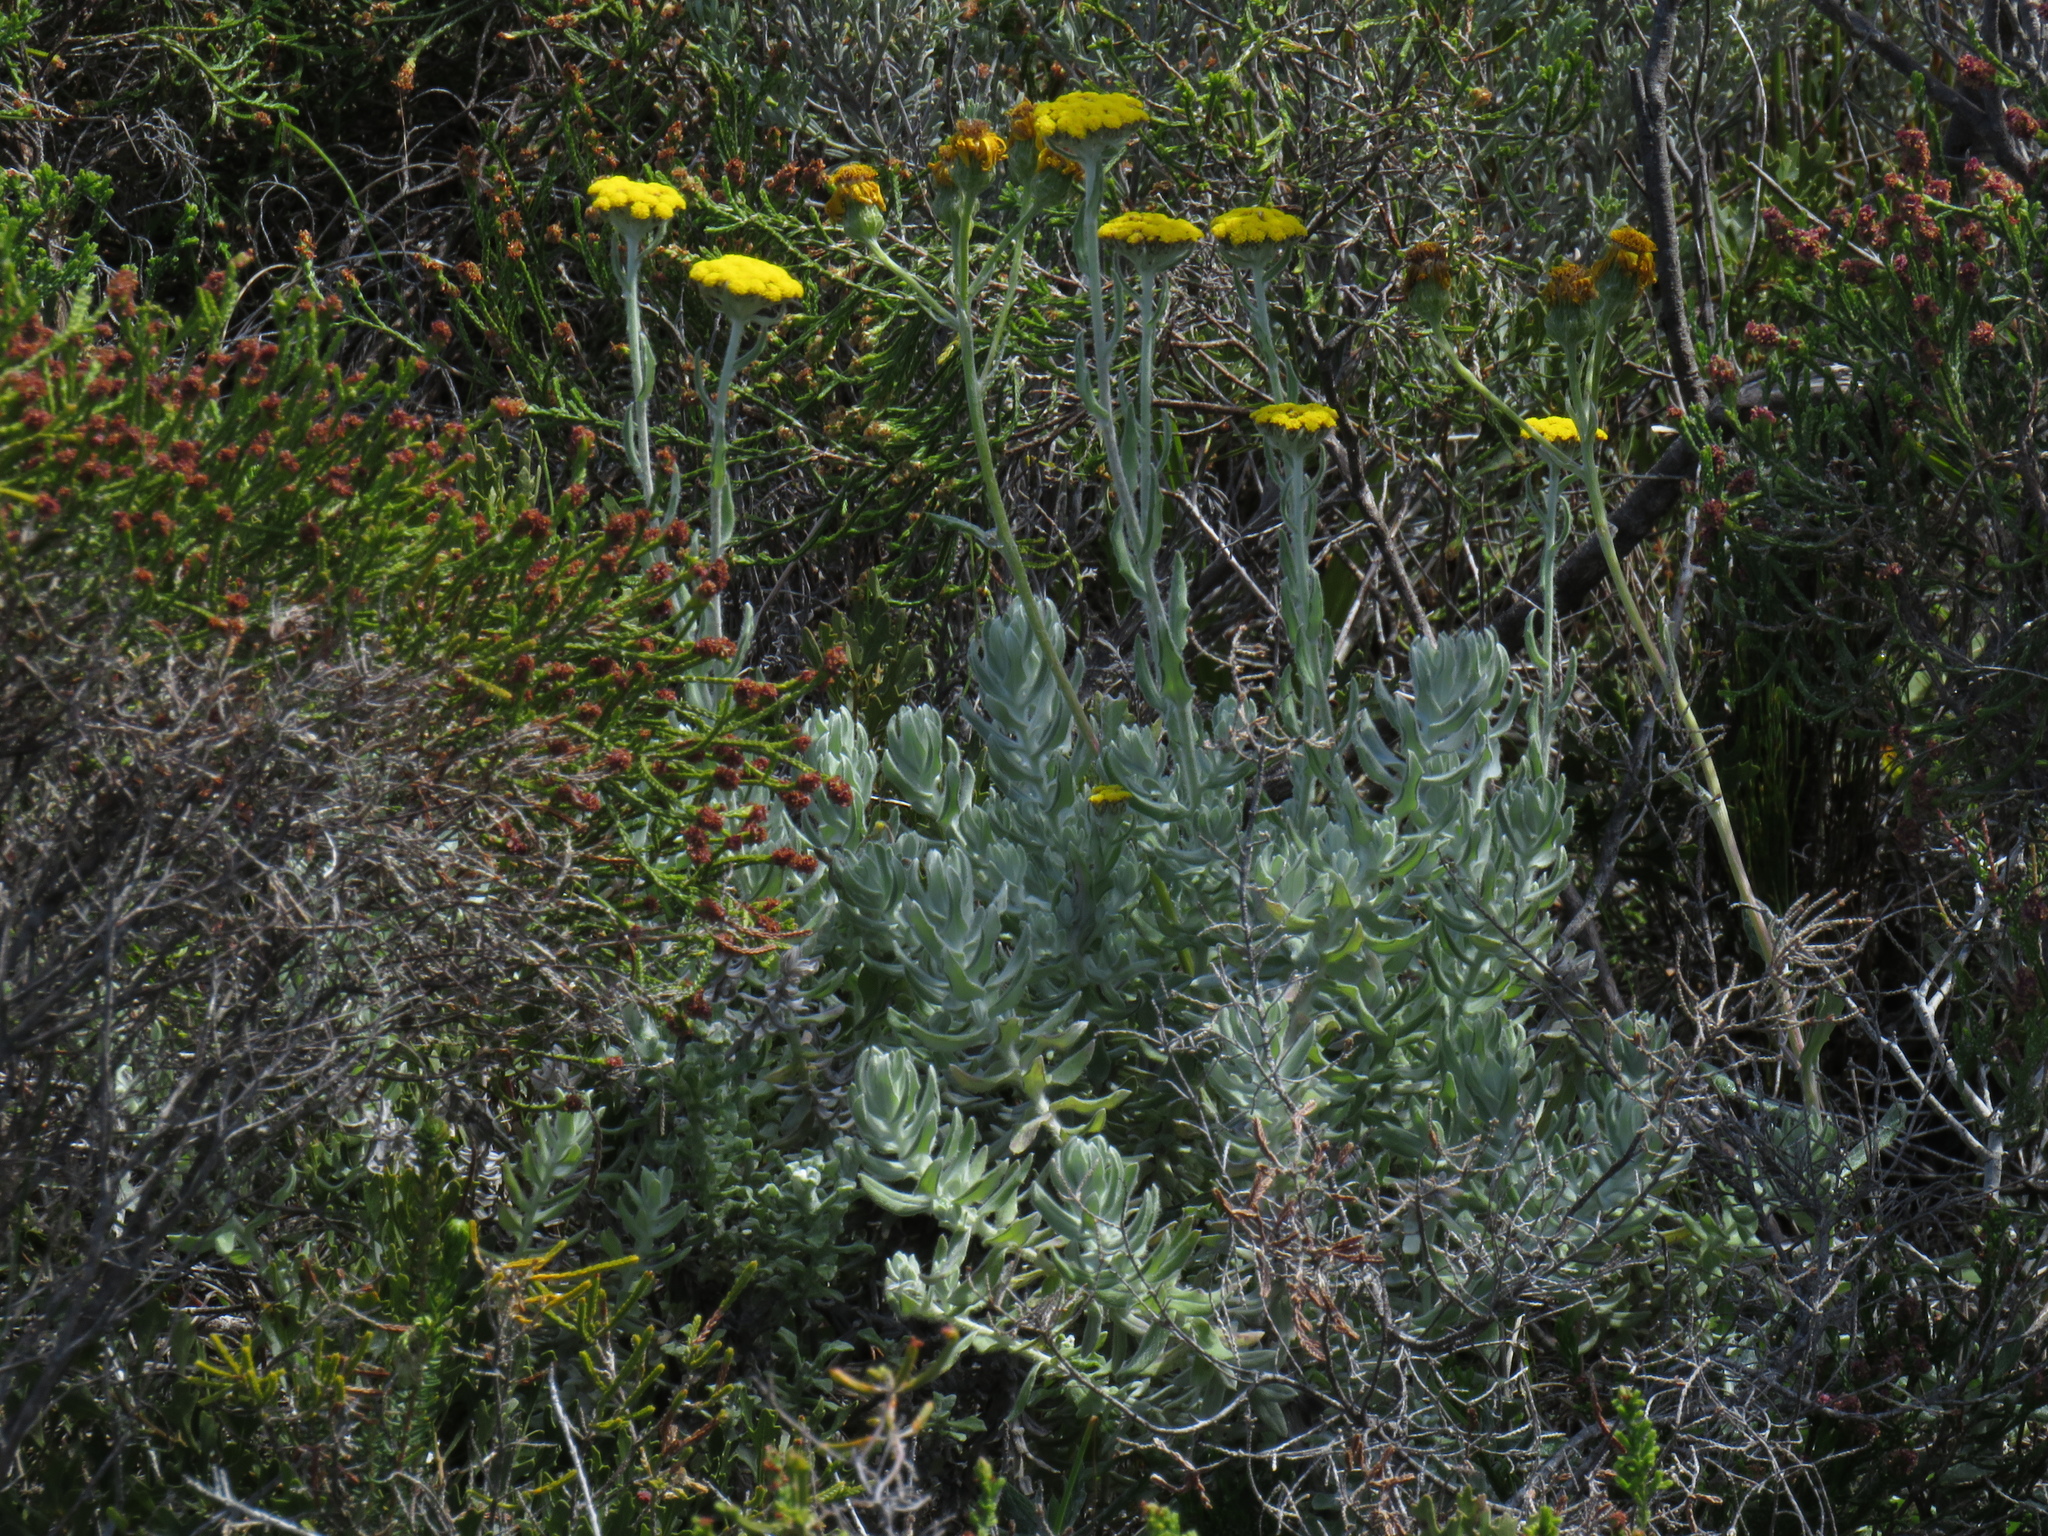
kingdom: Plantae
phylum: Tracheophyta
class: Magnoliopsida
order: Asterales
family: Asteraceae
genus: Helichrysum
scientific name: Helichrysum dasyanthum
